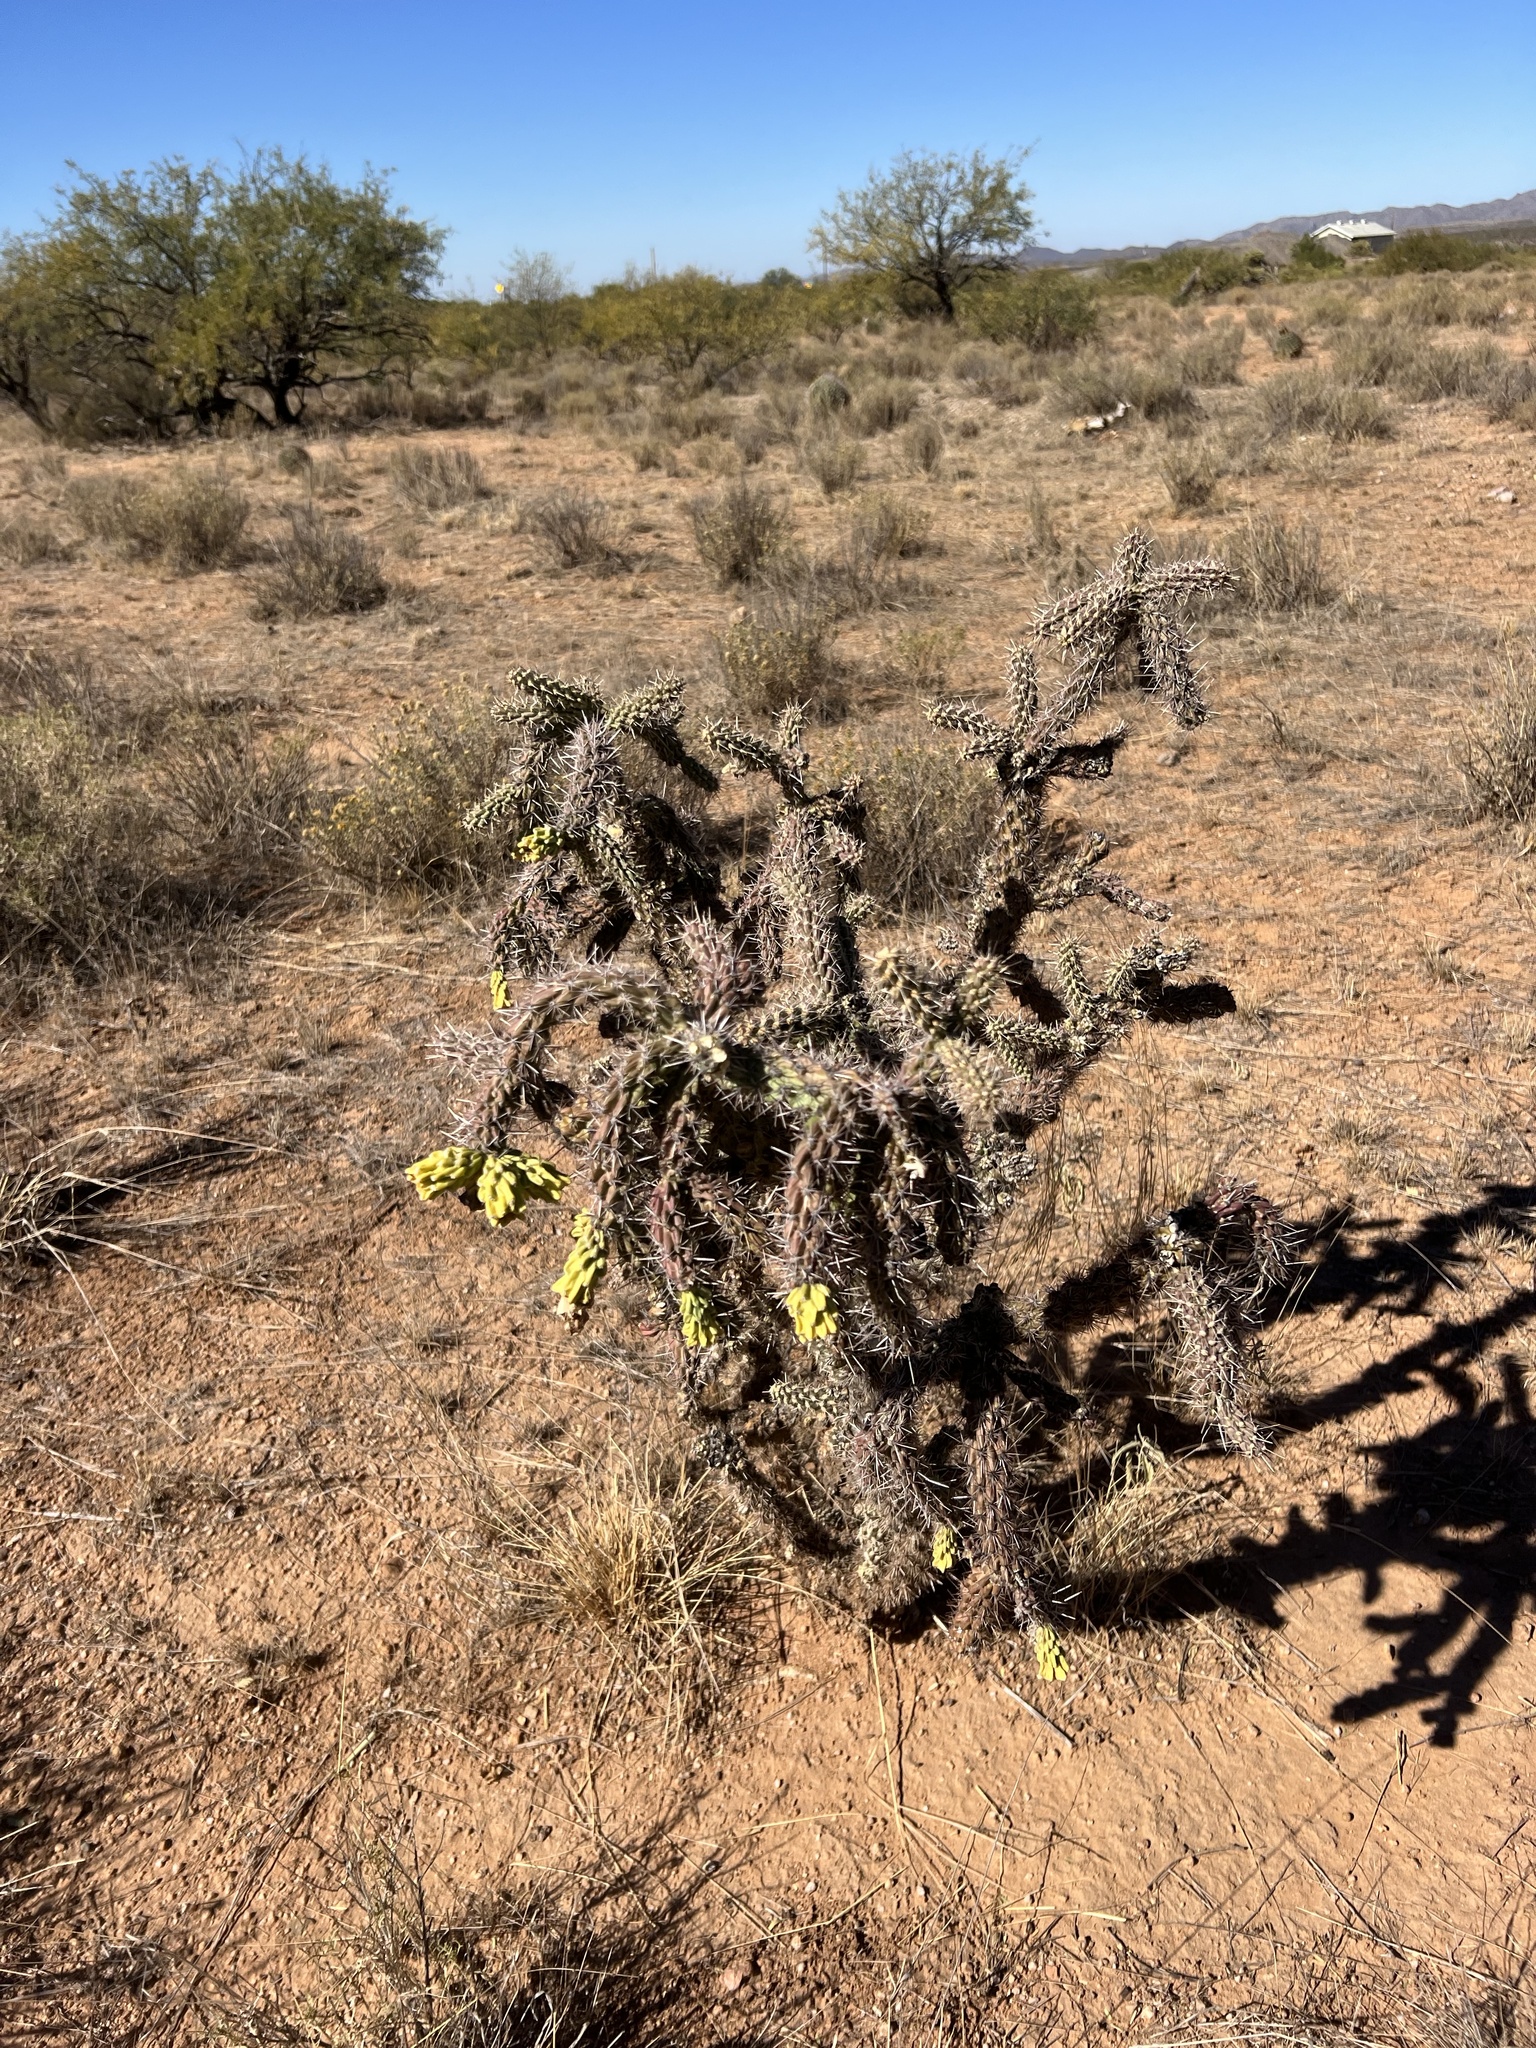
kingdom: Plantae
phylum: Tracheophyta
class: Magnoliopsida
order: Caryophyllales
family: Cactaceae
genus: Cylindropuntia
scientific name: Cylindropuntia imbricata
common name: Candelabrum cactus
